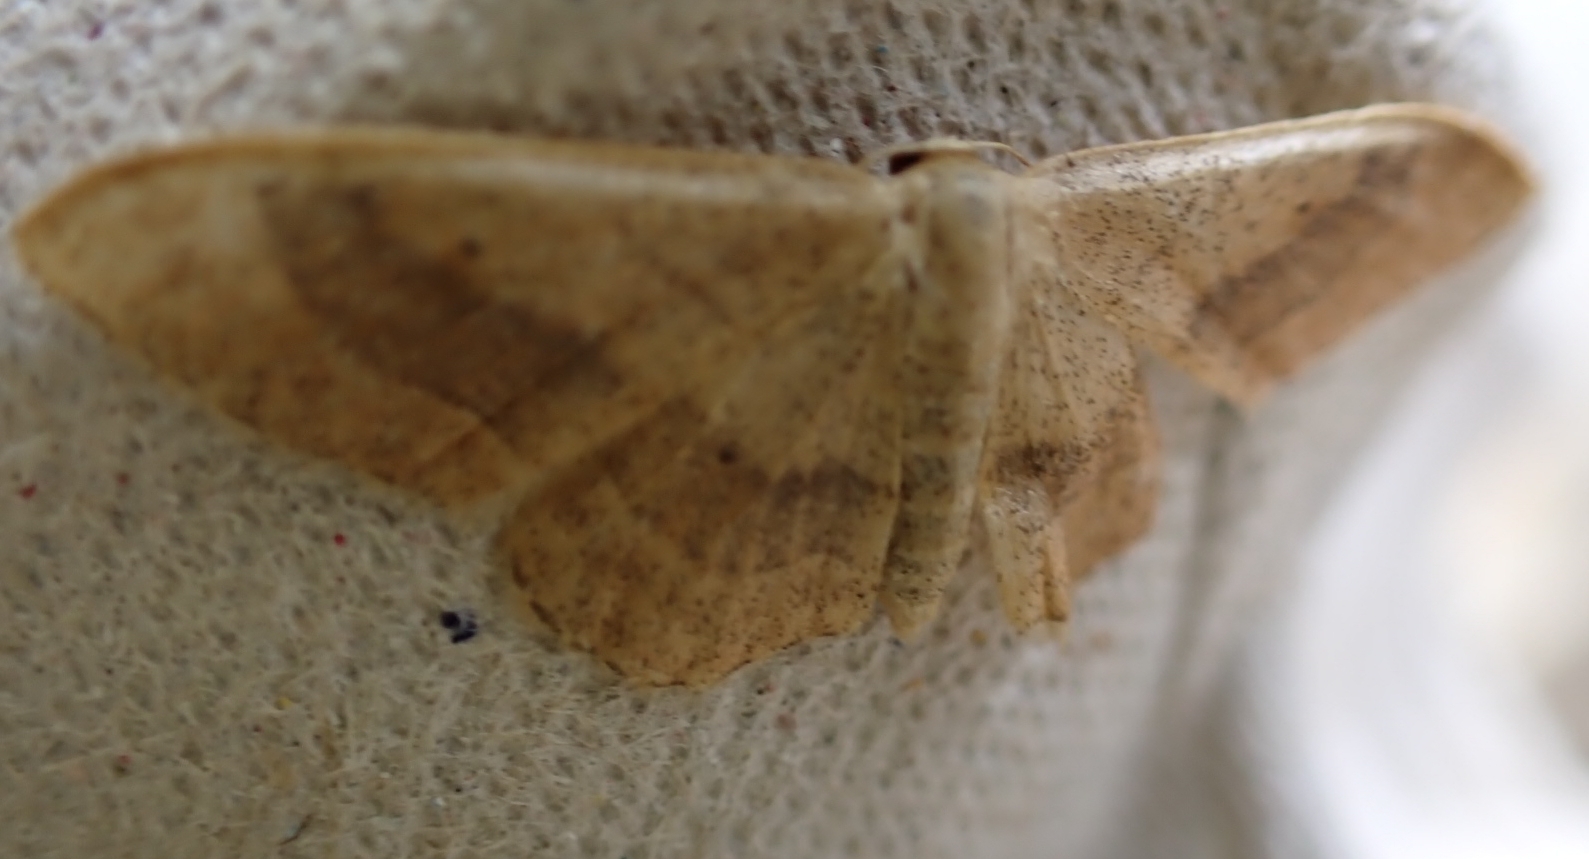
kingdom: Animalia
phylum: Arthropoda
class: Insecta
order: Lepidoptera
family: Geometridae
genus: Idaea
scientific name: Idaea aversata
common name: Riband wave
